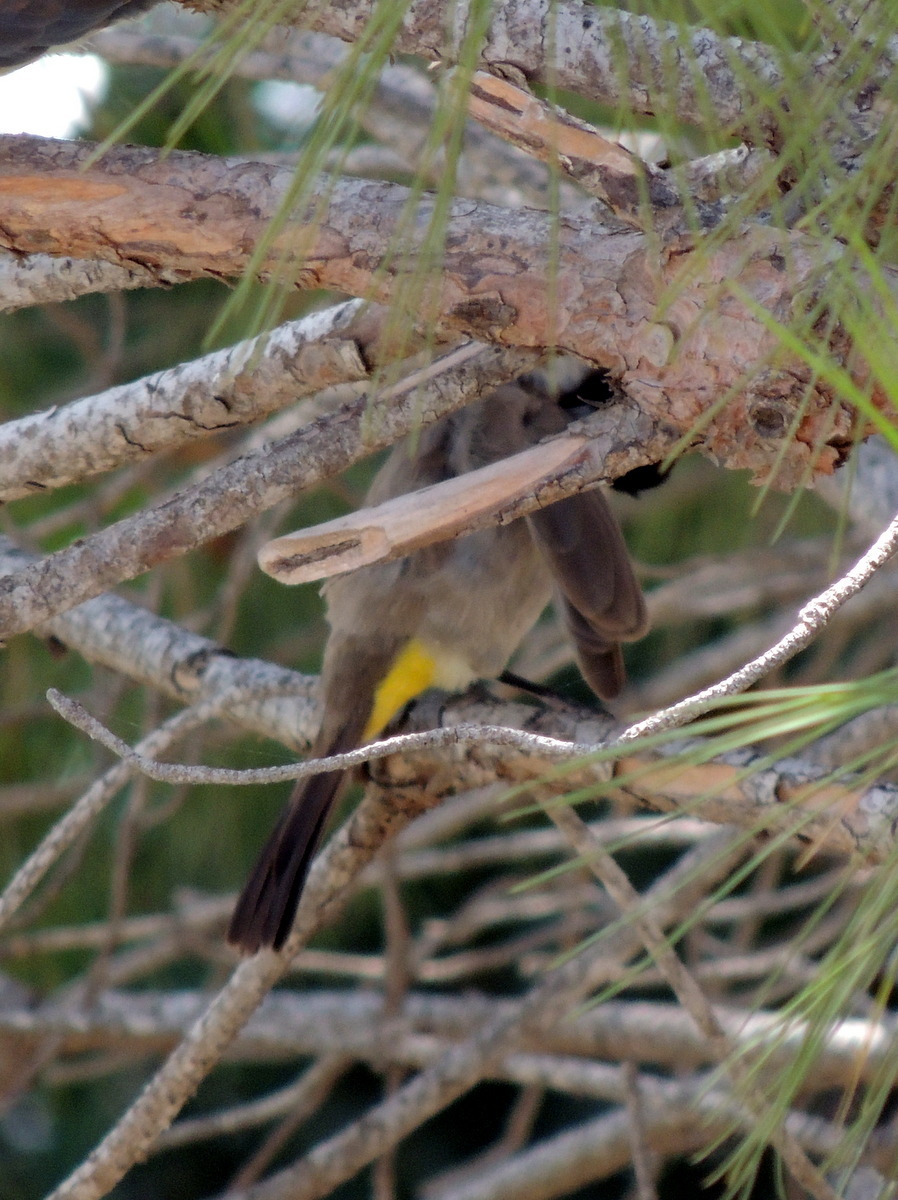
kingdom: Animalia
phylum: Chordata
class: Aves
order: Passeriformes
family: Pycnonotidae
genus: Pycnonotus
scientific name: Pycnonotus xanthopygos
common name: White-spectacled bulbul
